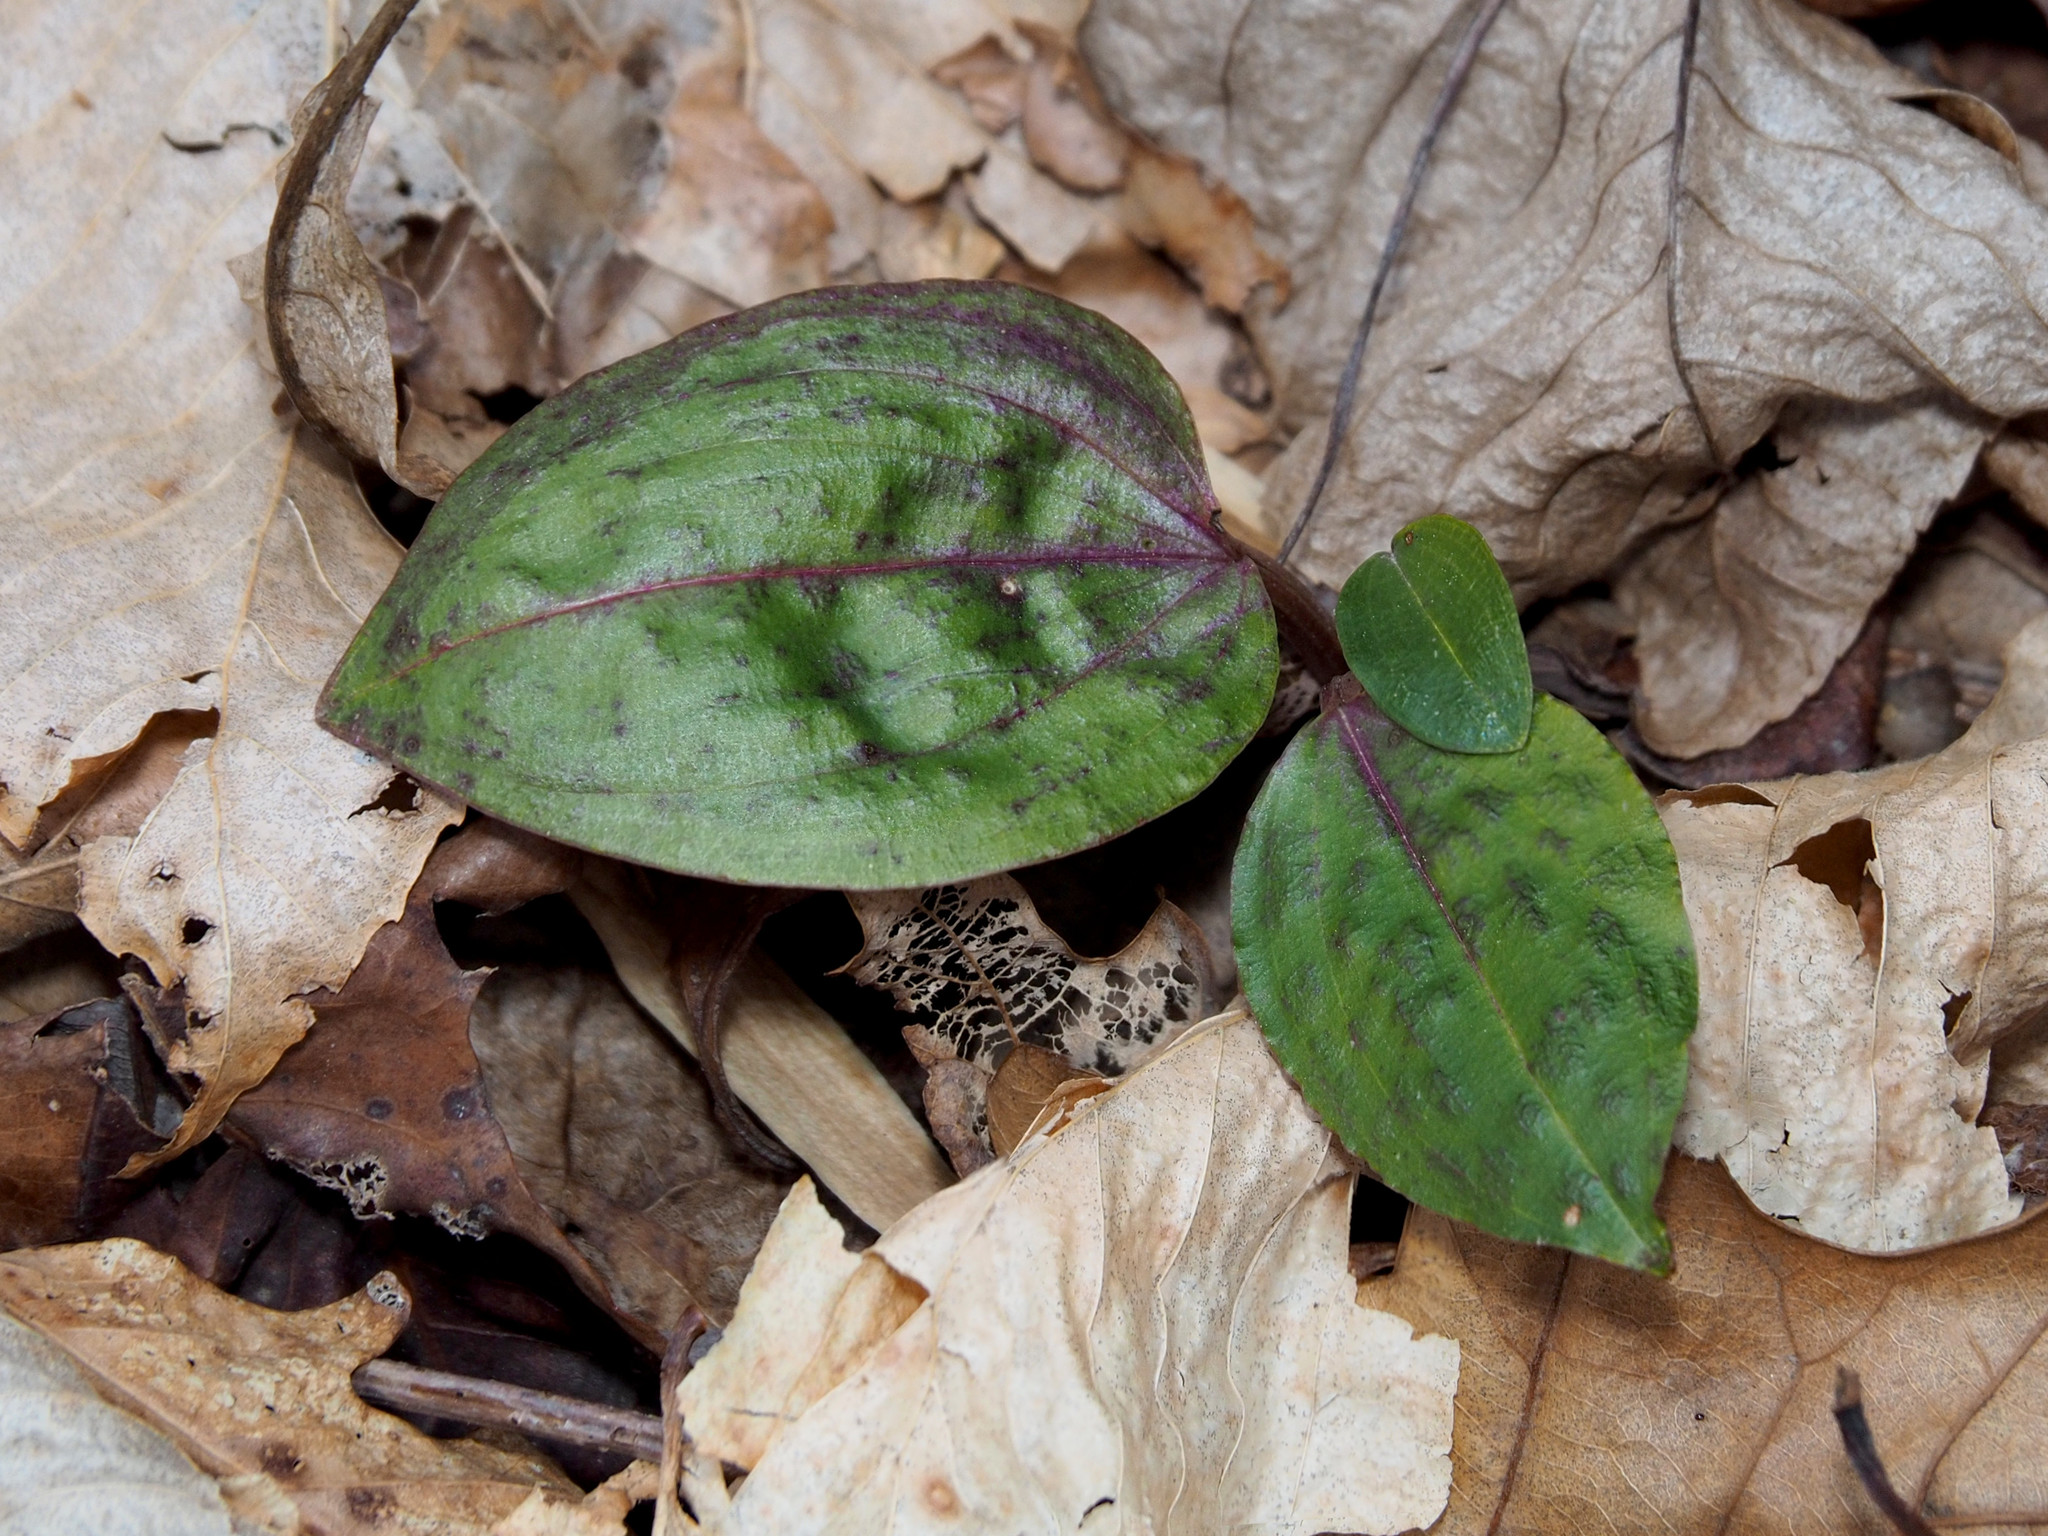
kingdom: Plantae
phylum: Tracheophyta
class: Liliopsida
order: Asparagales
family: Orchidaceae
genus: Tipularia
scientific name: Tipularia discolor
